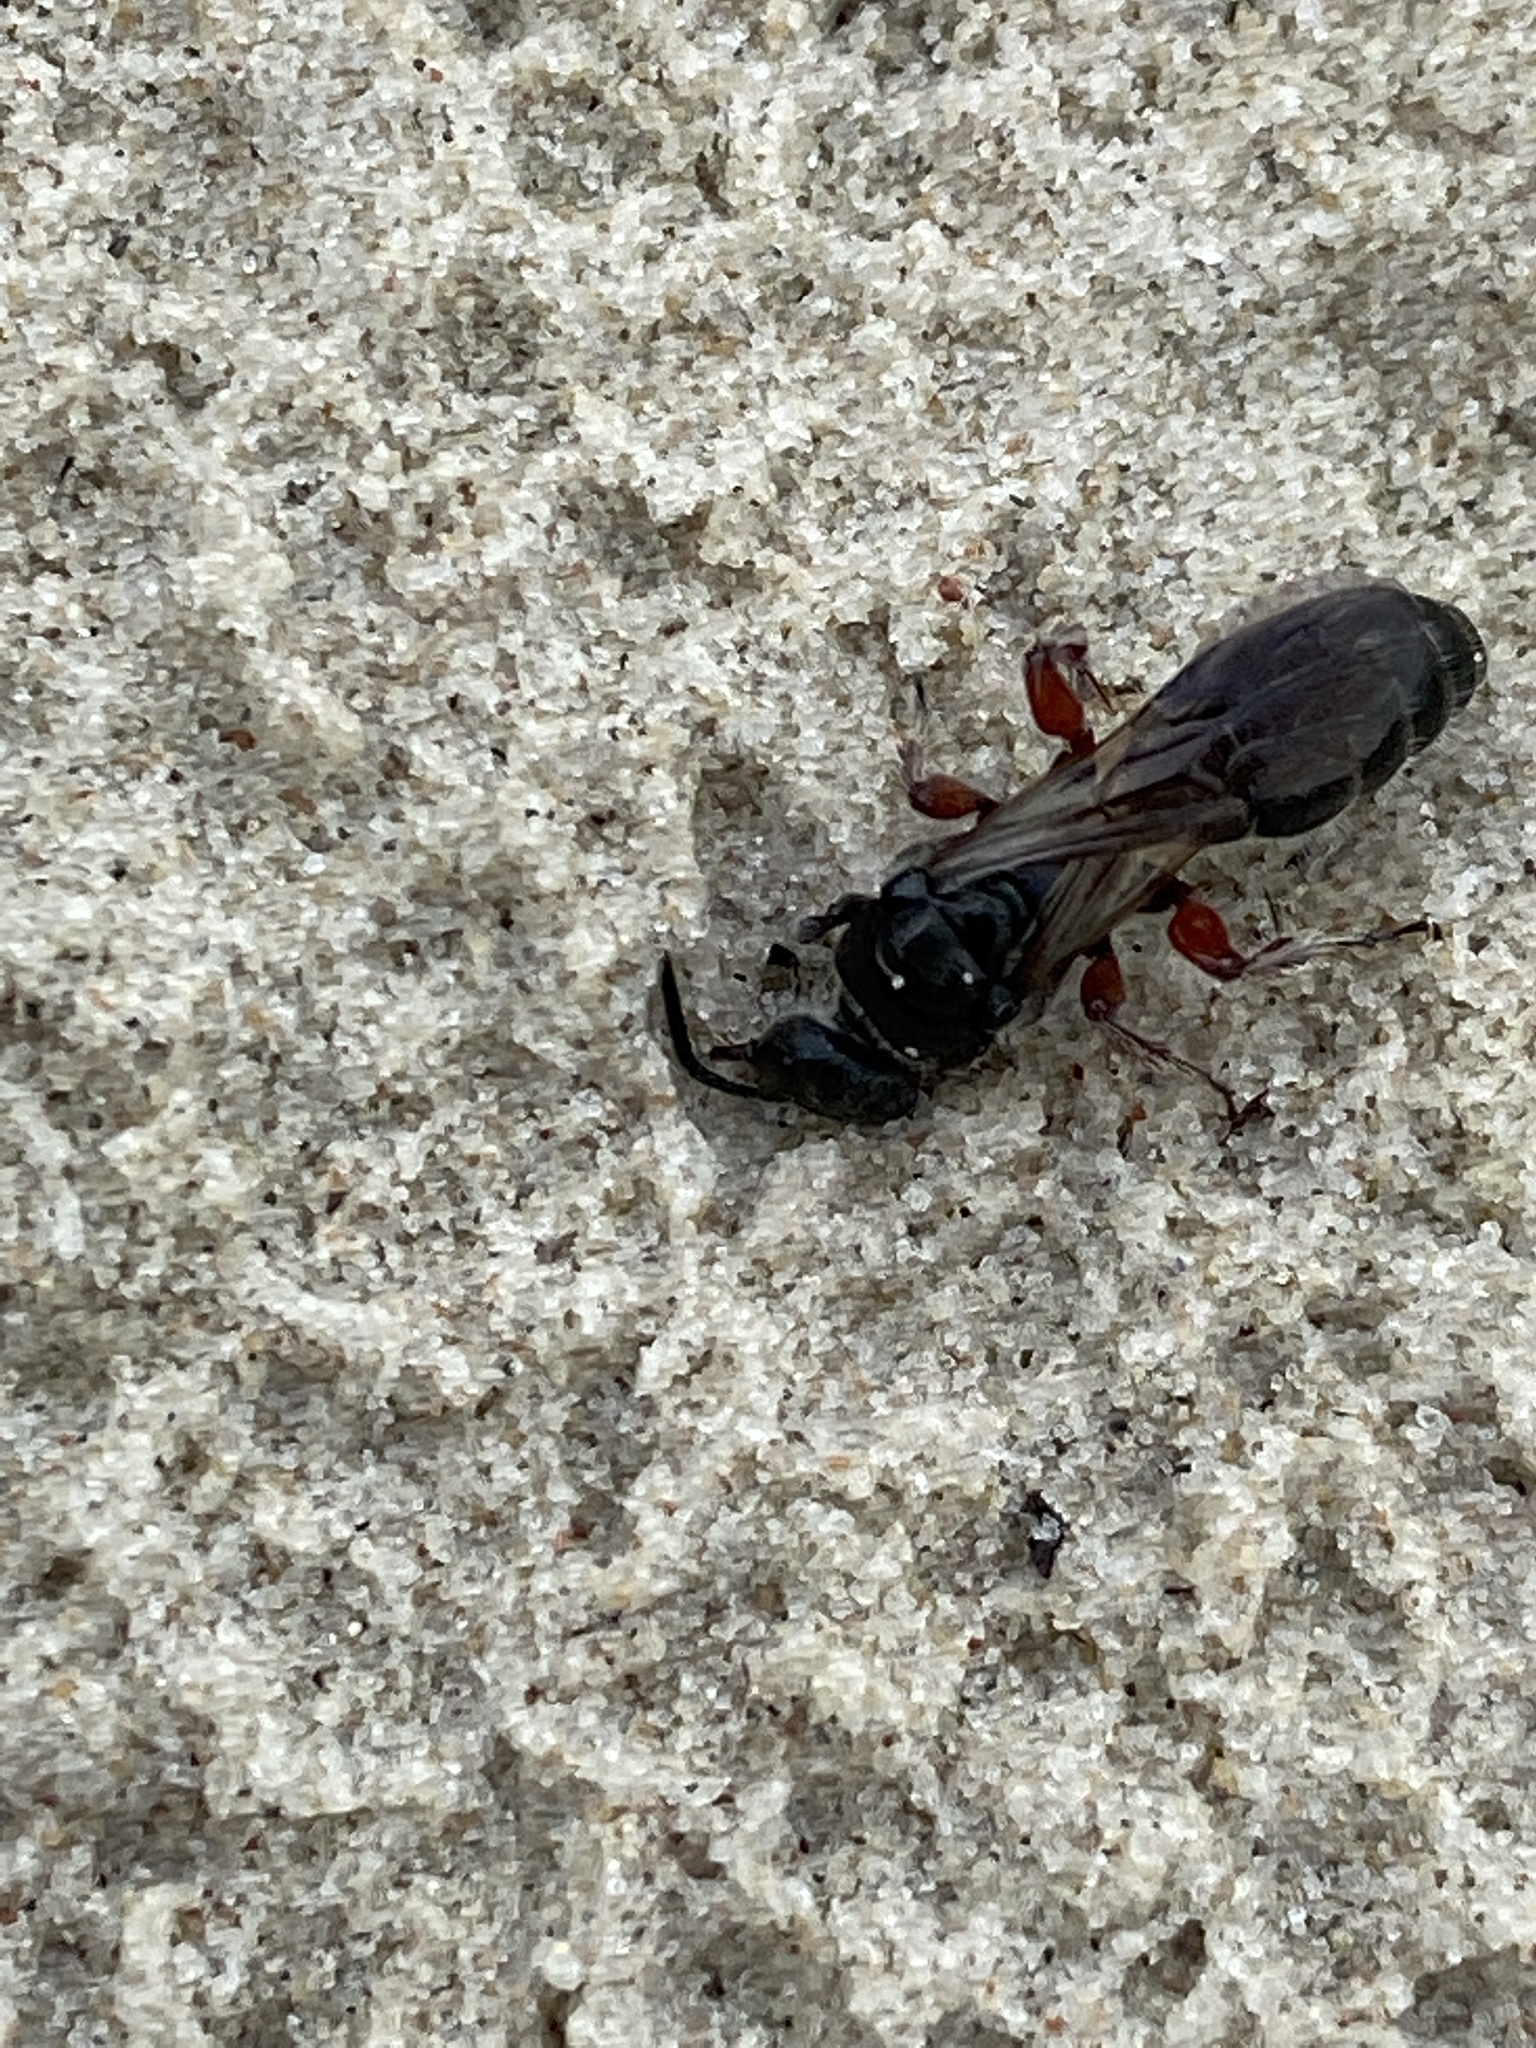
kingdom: Animalia
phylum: Arthropoda
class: Insecta
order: Hymenoptera
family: Tiphiidae
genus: Tiphia
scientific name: Tiphia femorata
